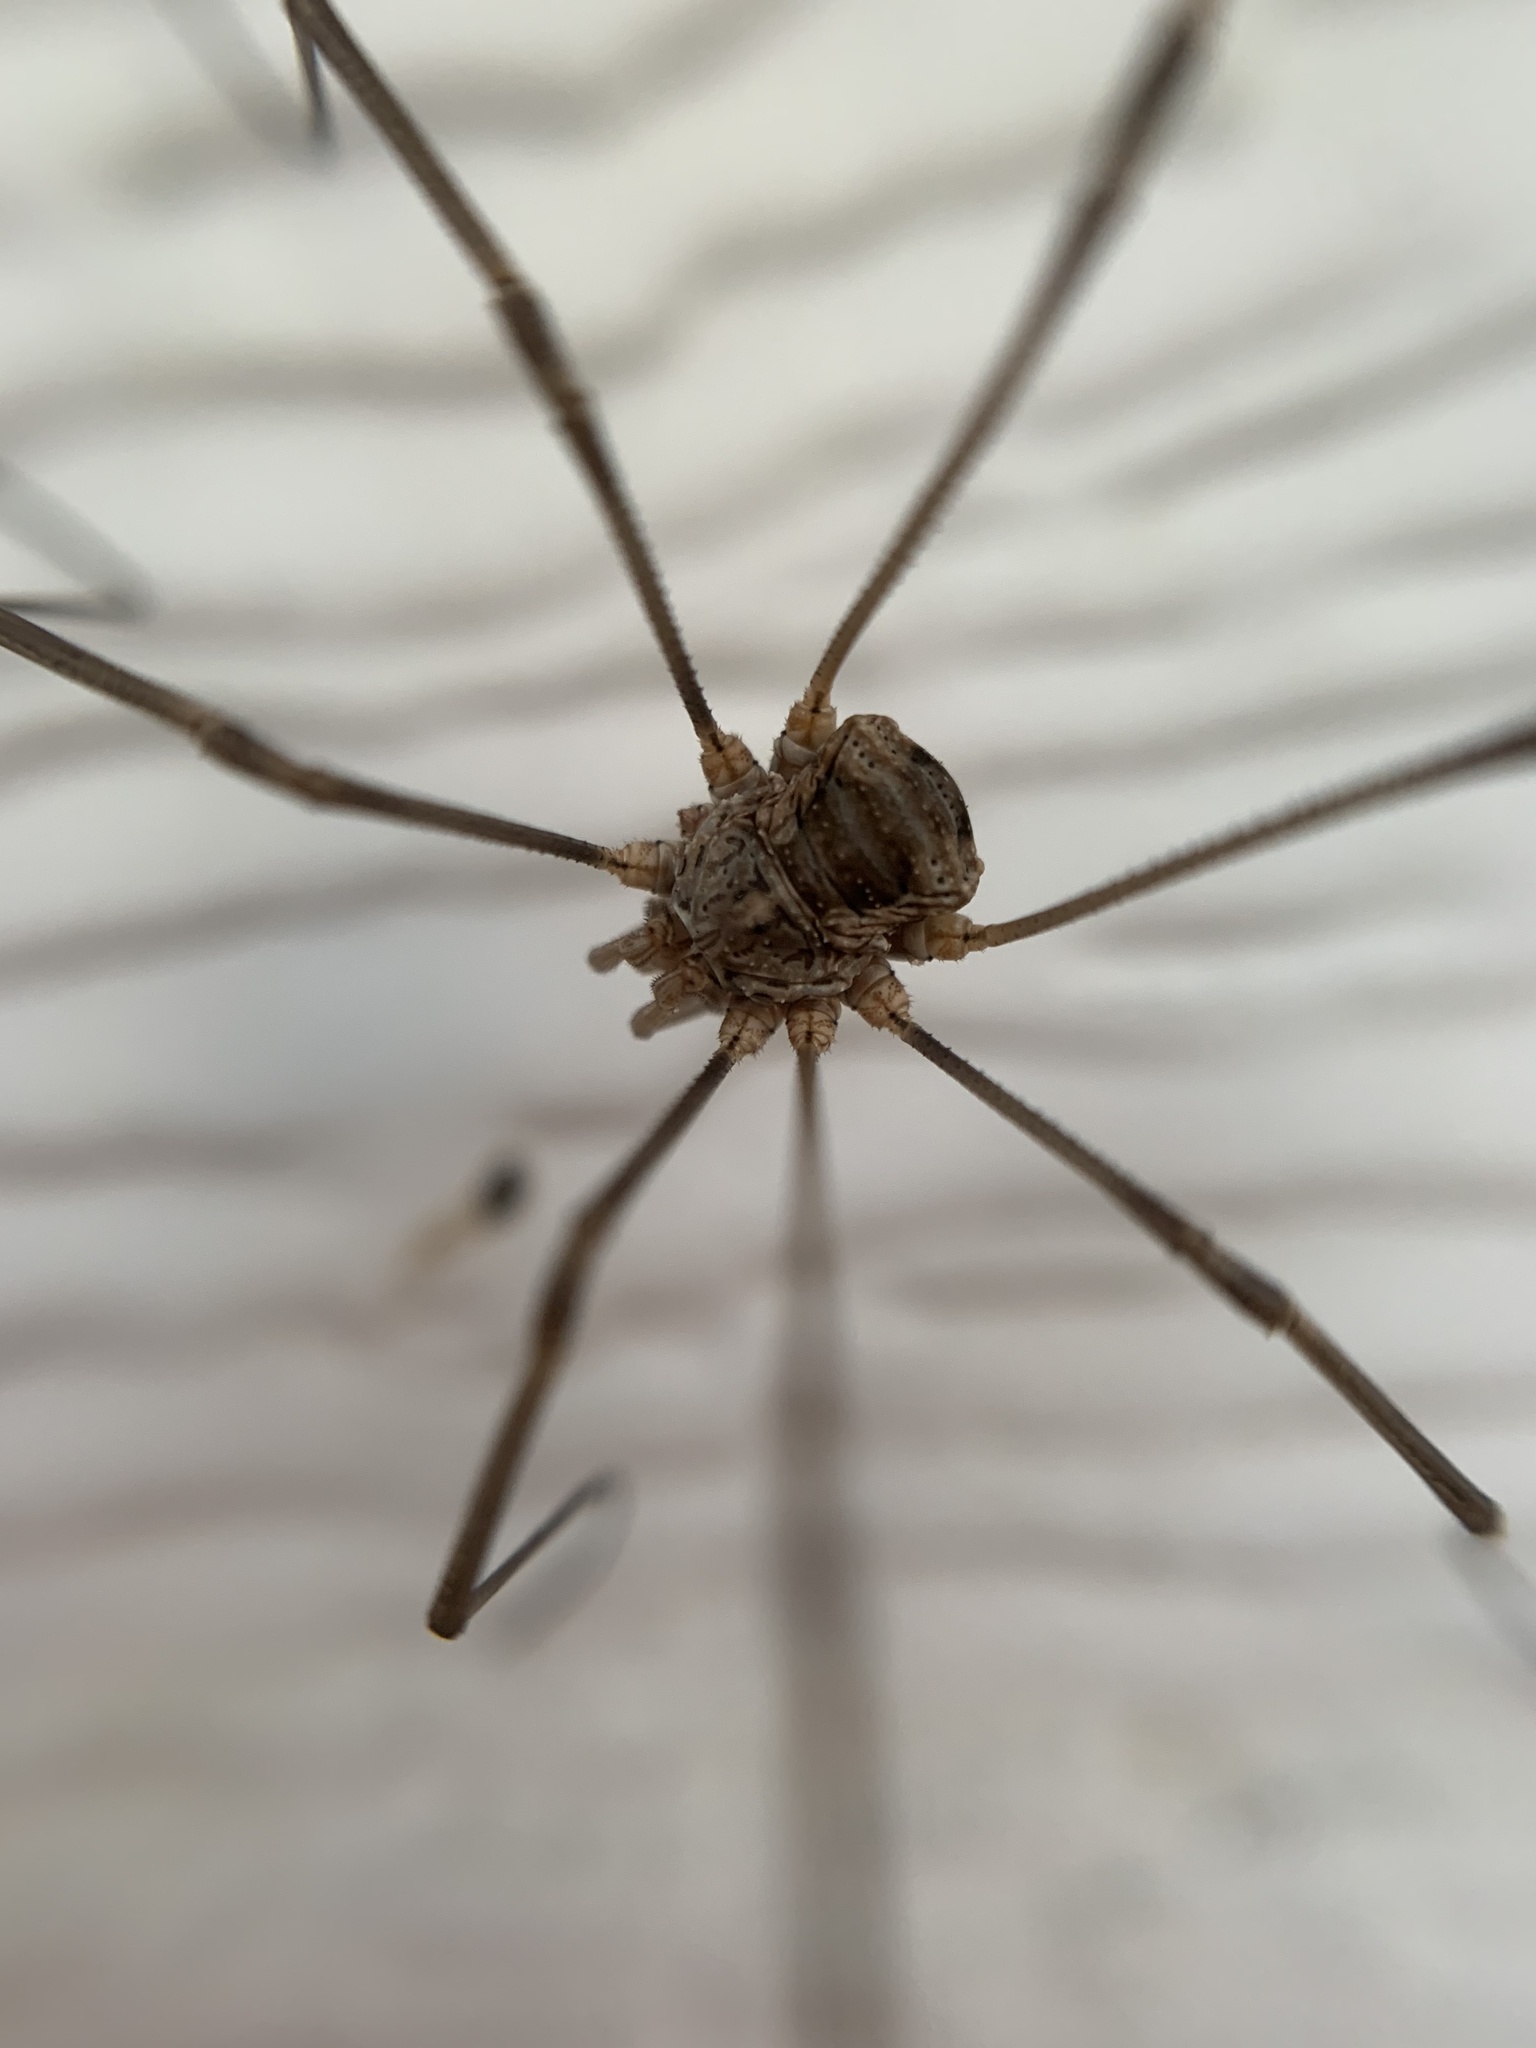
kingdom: Animalia
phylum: Arthropoda
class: Arachnida
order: Opiliones
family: Phalangiidae
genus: Phalangium
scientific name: Phalangium opilio
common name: Daddy longleg
